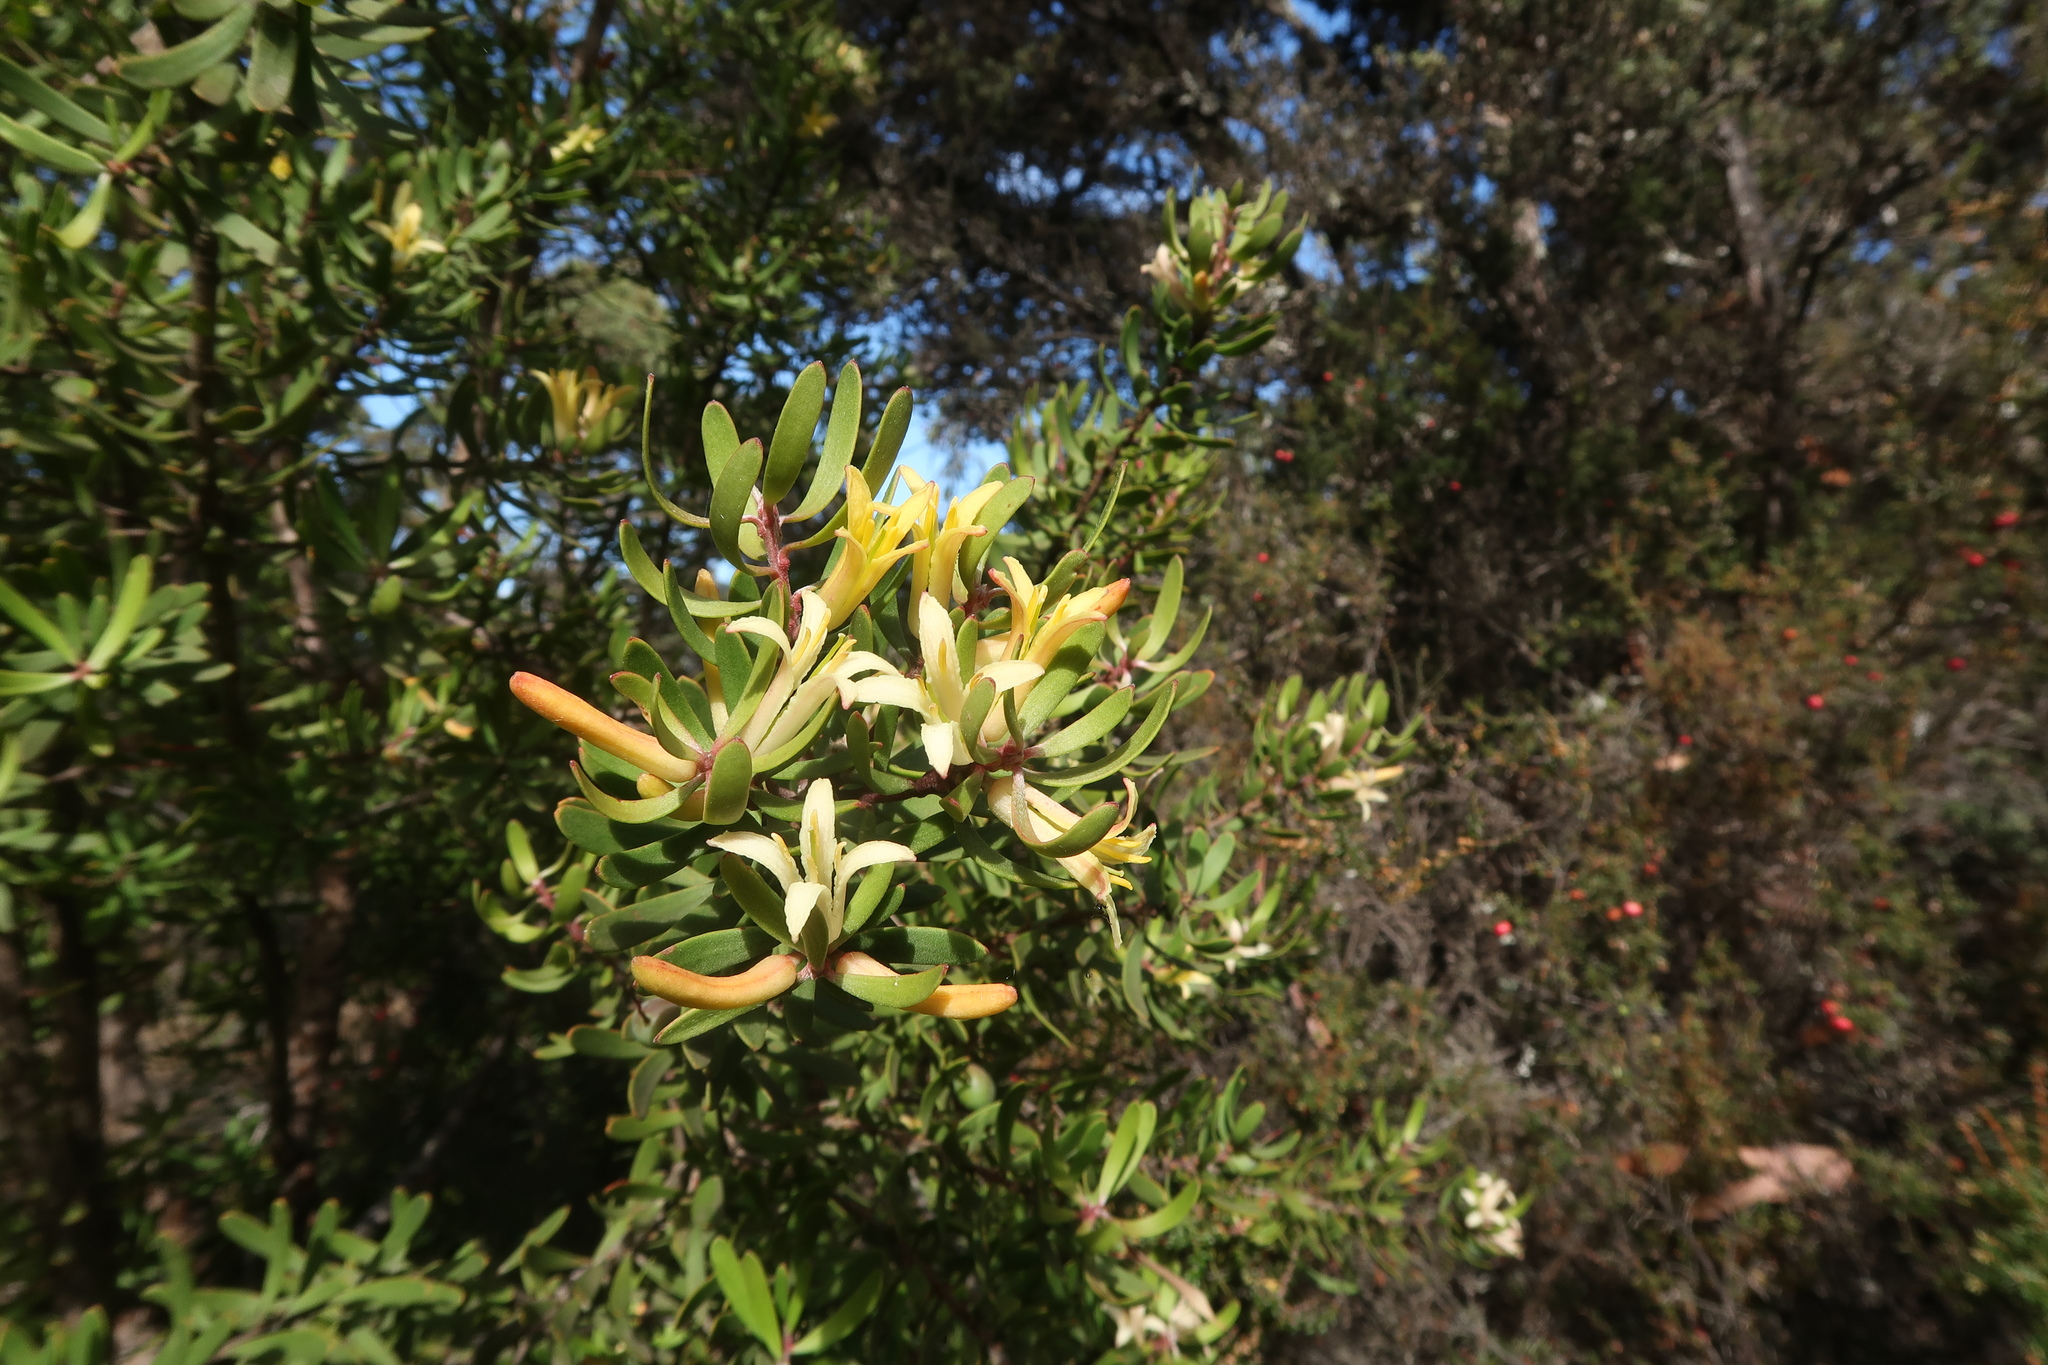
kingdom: Plantae
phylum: Tracheophyta
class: Magnoliopsida
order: Proteales
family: Proteaceae
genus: Persoonia
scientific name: Persoonia muelleri
